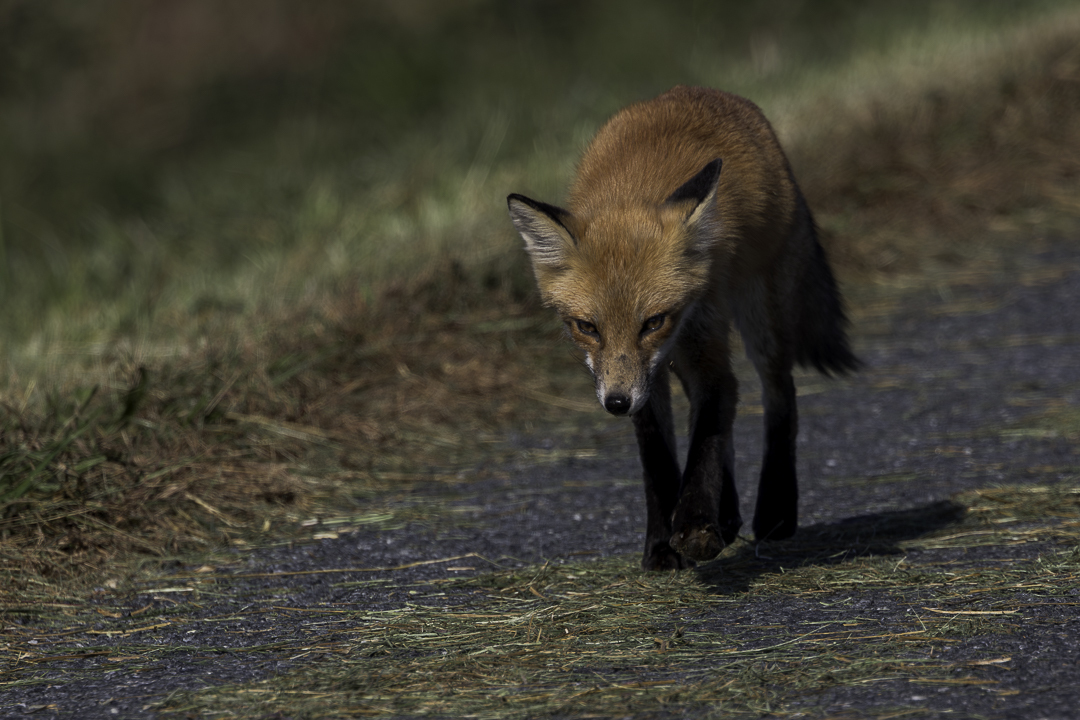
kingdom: Animalia
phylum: Chordata
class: Mammalia
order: Carnivora
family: Canidae
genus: Vulpes
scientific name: Vulpes vulpes
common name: Red fox
